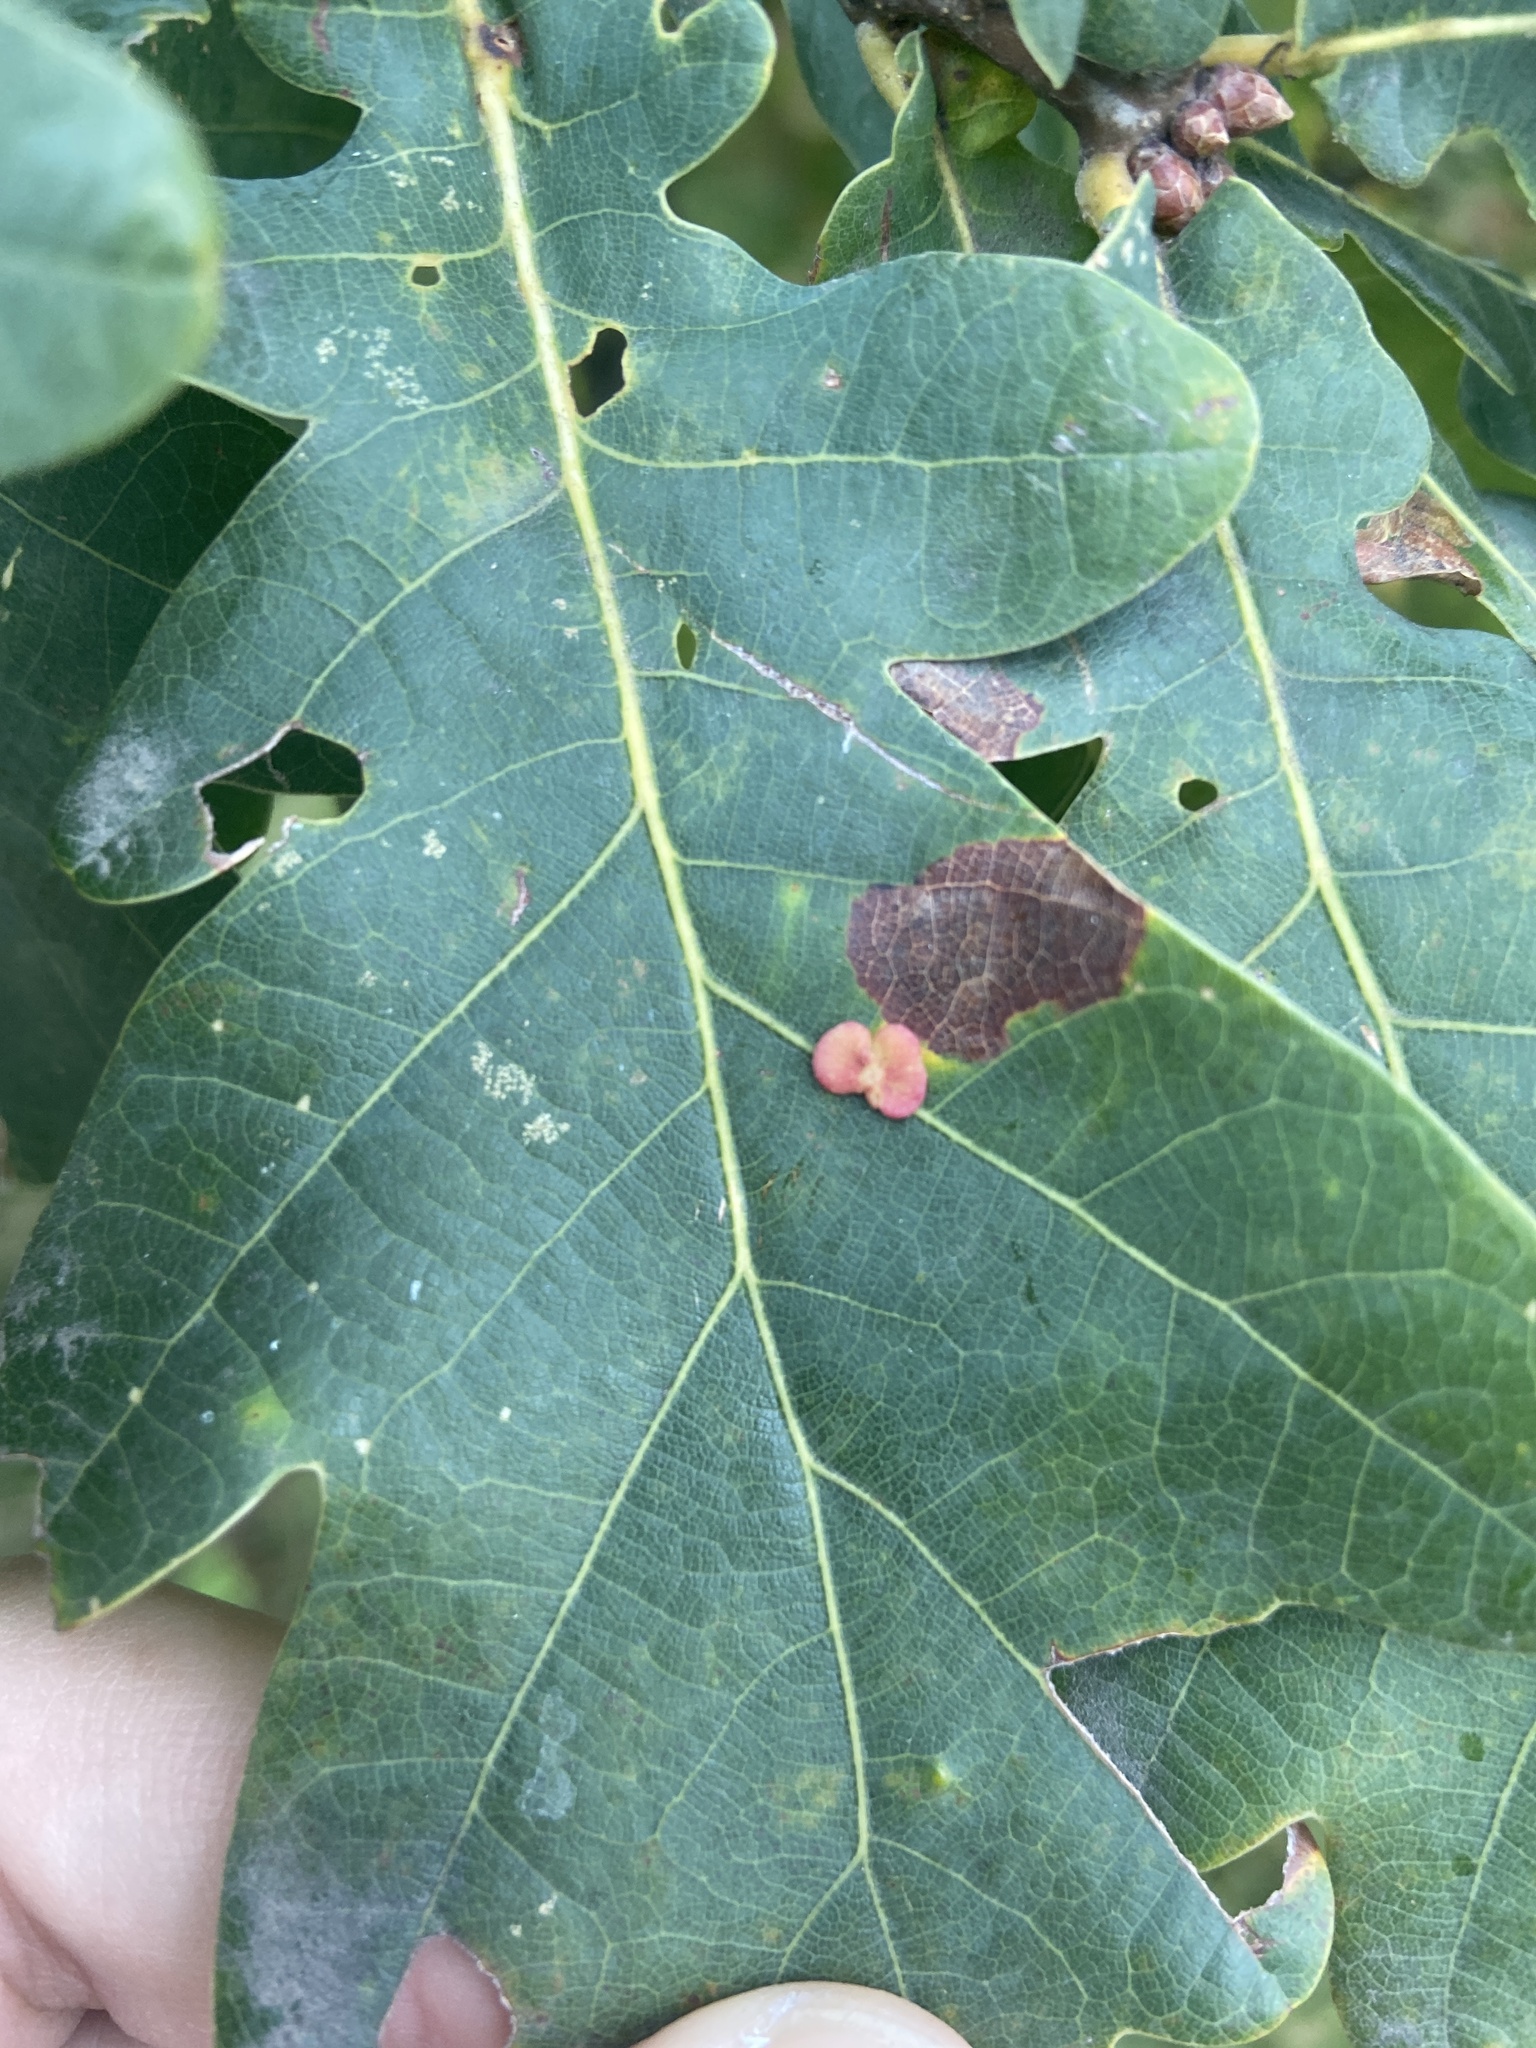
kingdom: Animalia
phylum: Arthropoda
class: Insecta
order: Hymenoptera
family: Cynipidae
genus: Neuroterus
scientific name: Neuroterus albipes
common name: Smooth spangle gall
